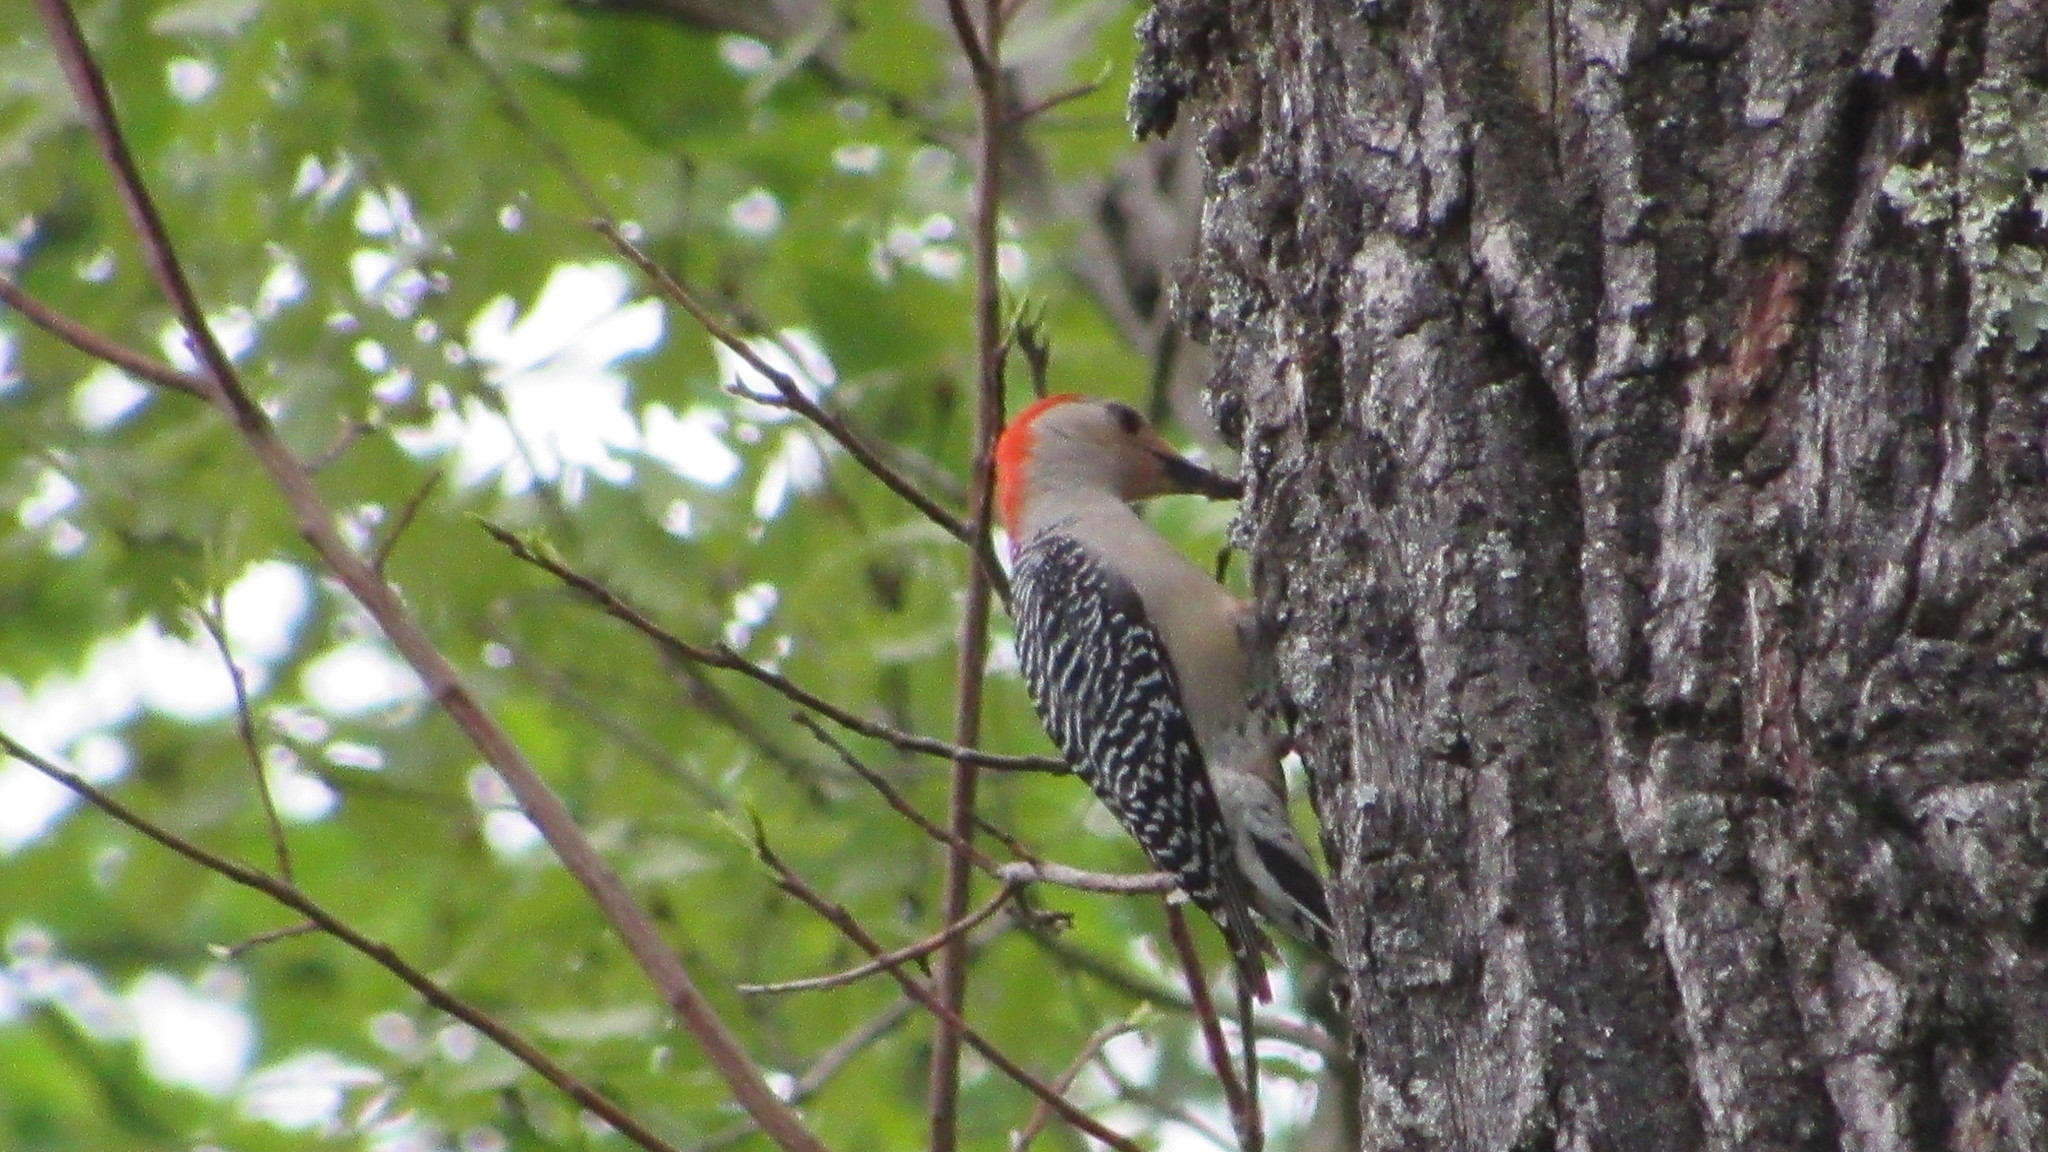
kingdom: Animalia
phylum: Chordata
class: Aves
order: Piciformes
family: Picidae
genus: Melanerpes
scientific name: Melanerpes carolinus
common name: Red-bellied woodpecker
